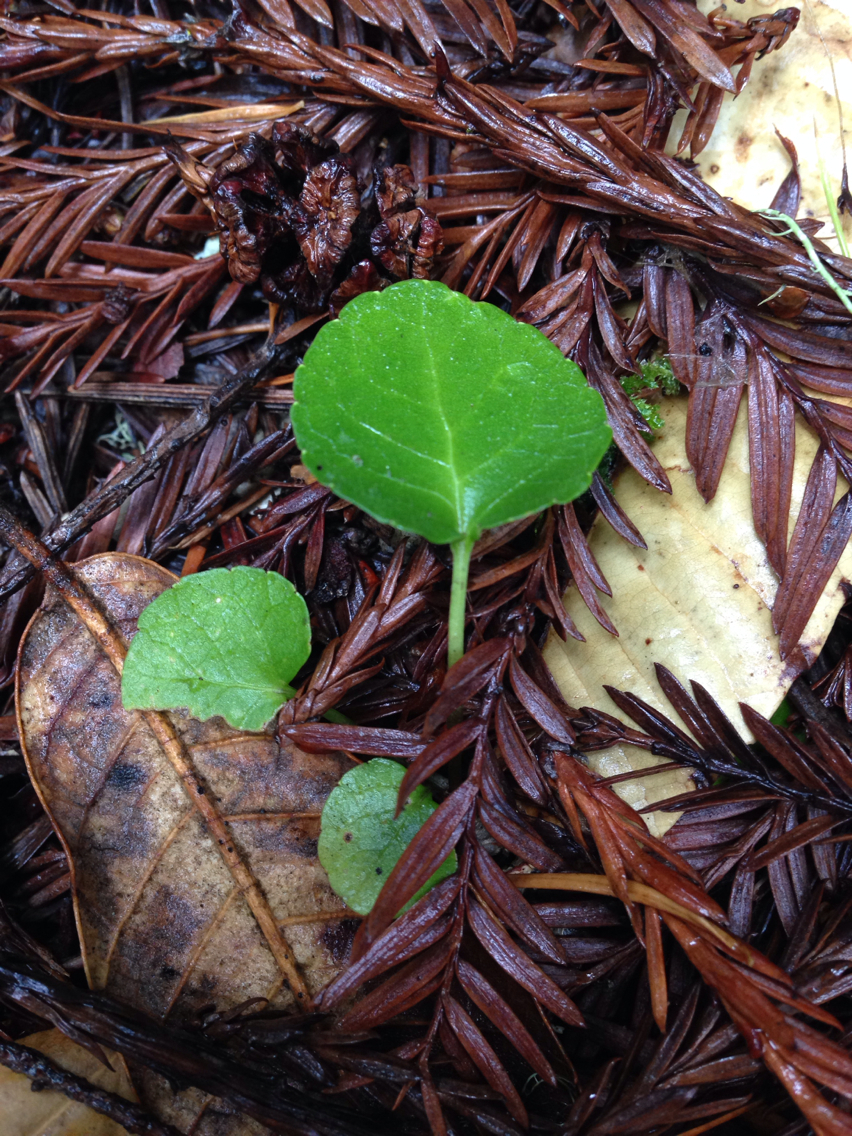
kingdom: Plantae
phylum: Tracheophyta
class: Magnoliopsida
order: Malpighiales
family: Violaceae
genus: Viola
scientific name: Viola sempervirens
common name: Evergreen violet
